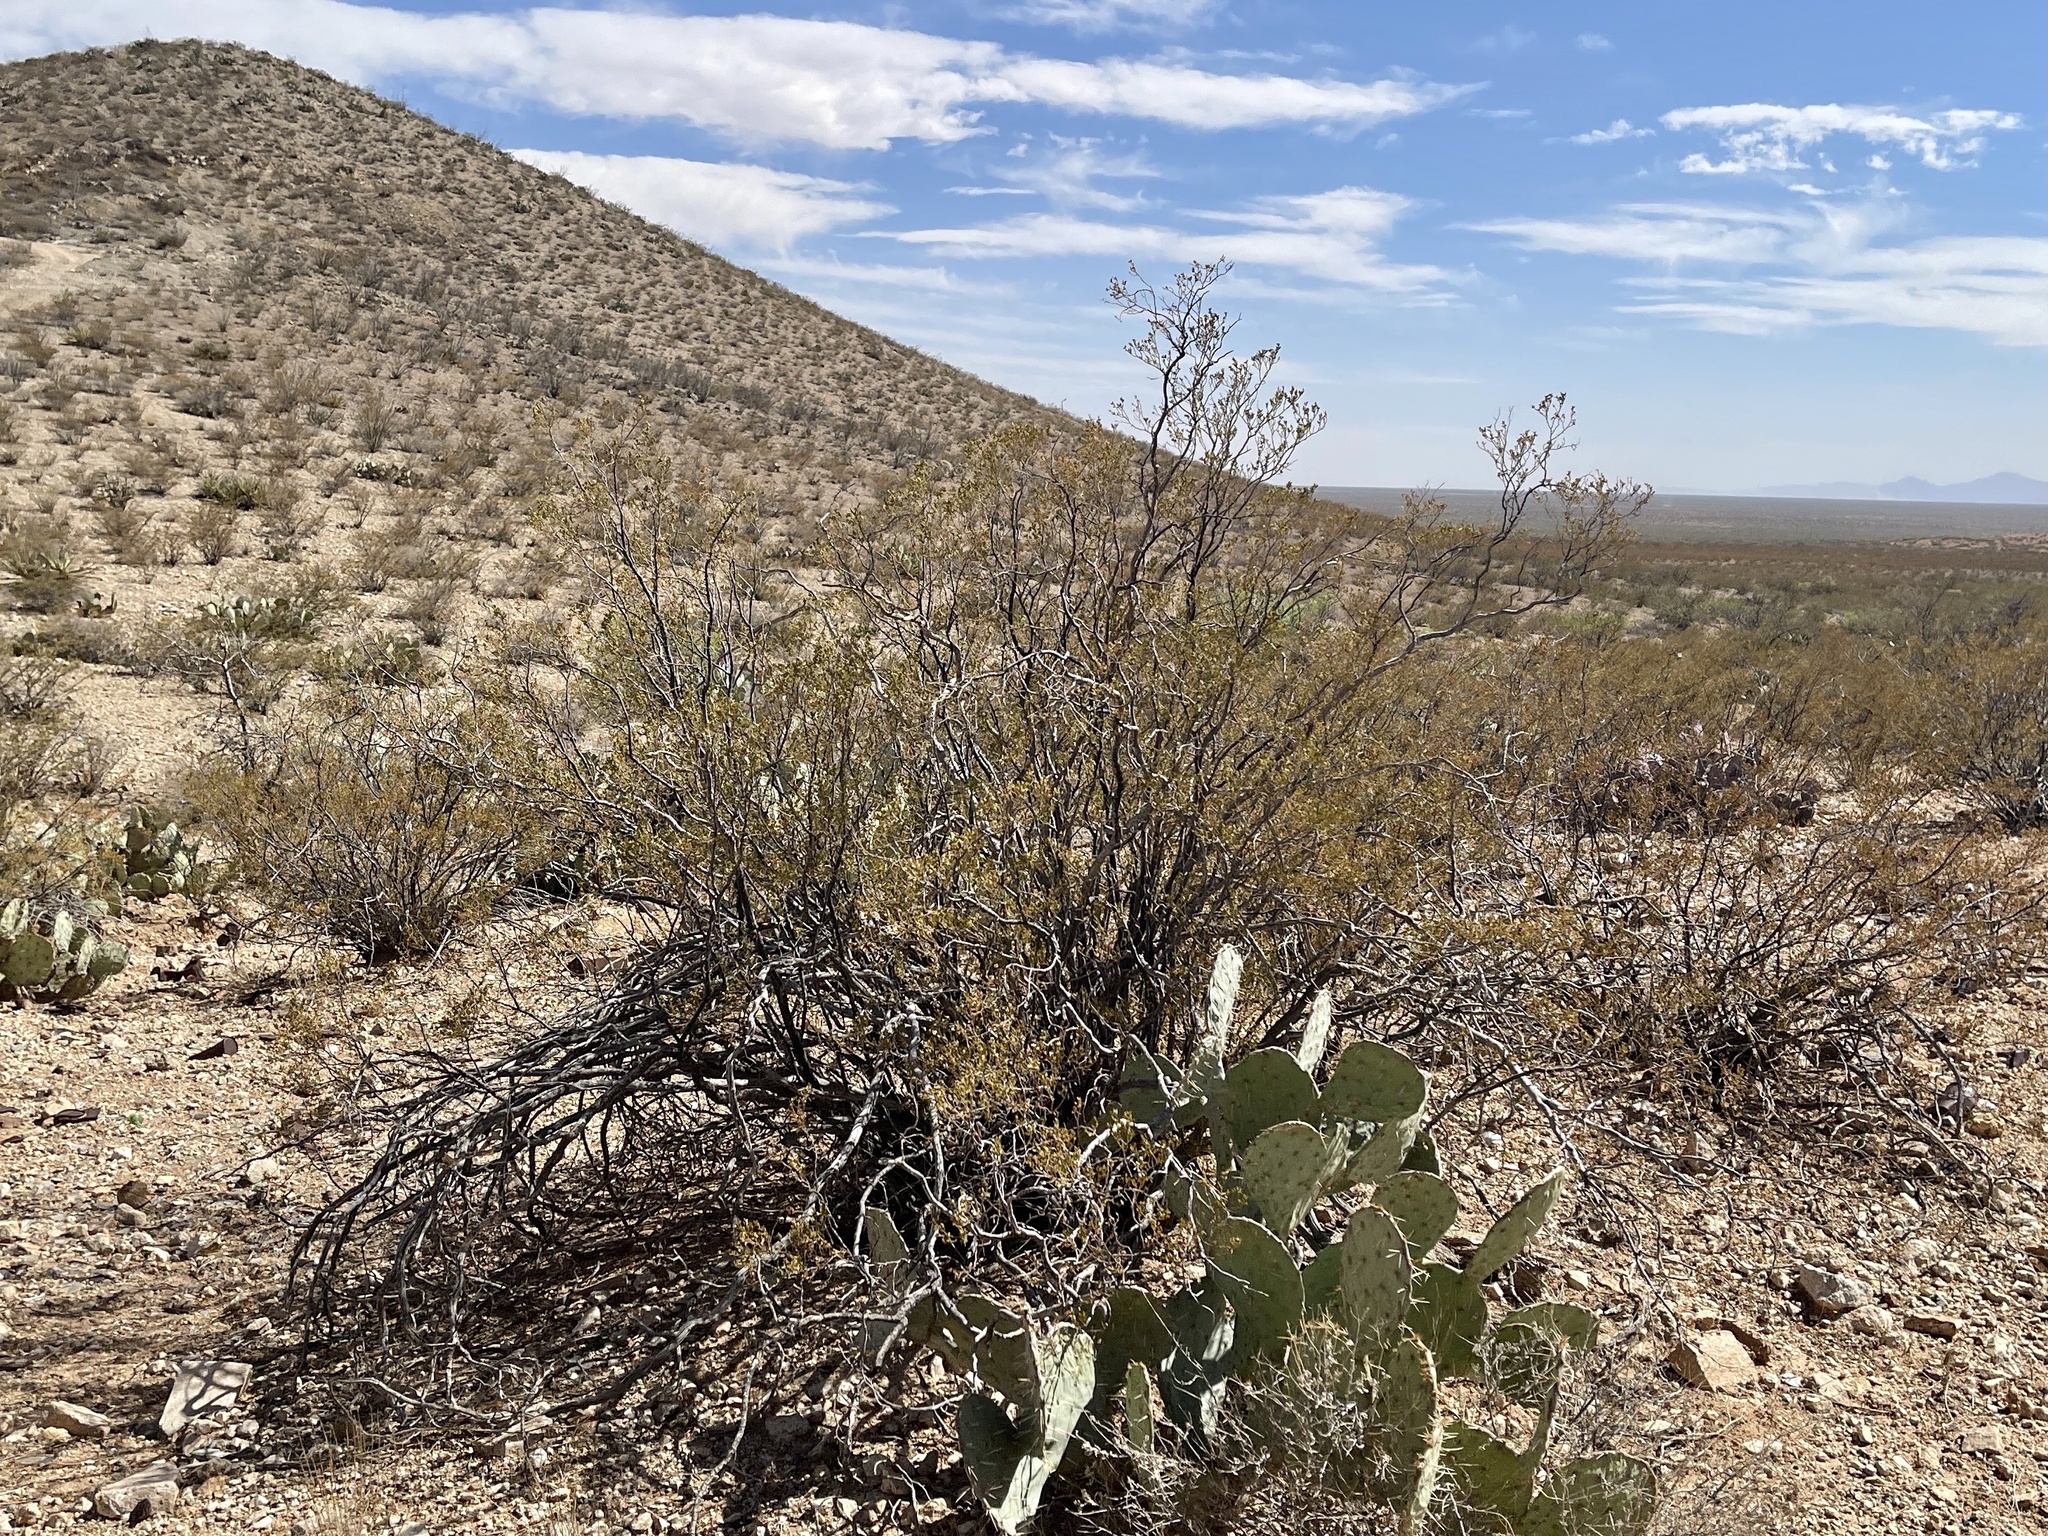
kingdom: Plantae
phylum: Tracheophyta
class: Magnoliopsida
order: Zygophyllales
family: Zygophyllaceae
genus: Larrea
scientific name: Larrea tridentata
